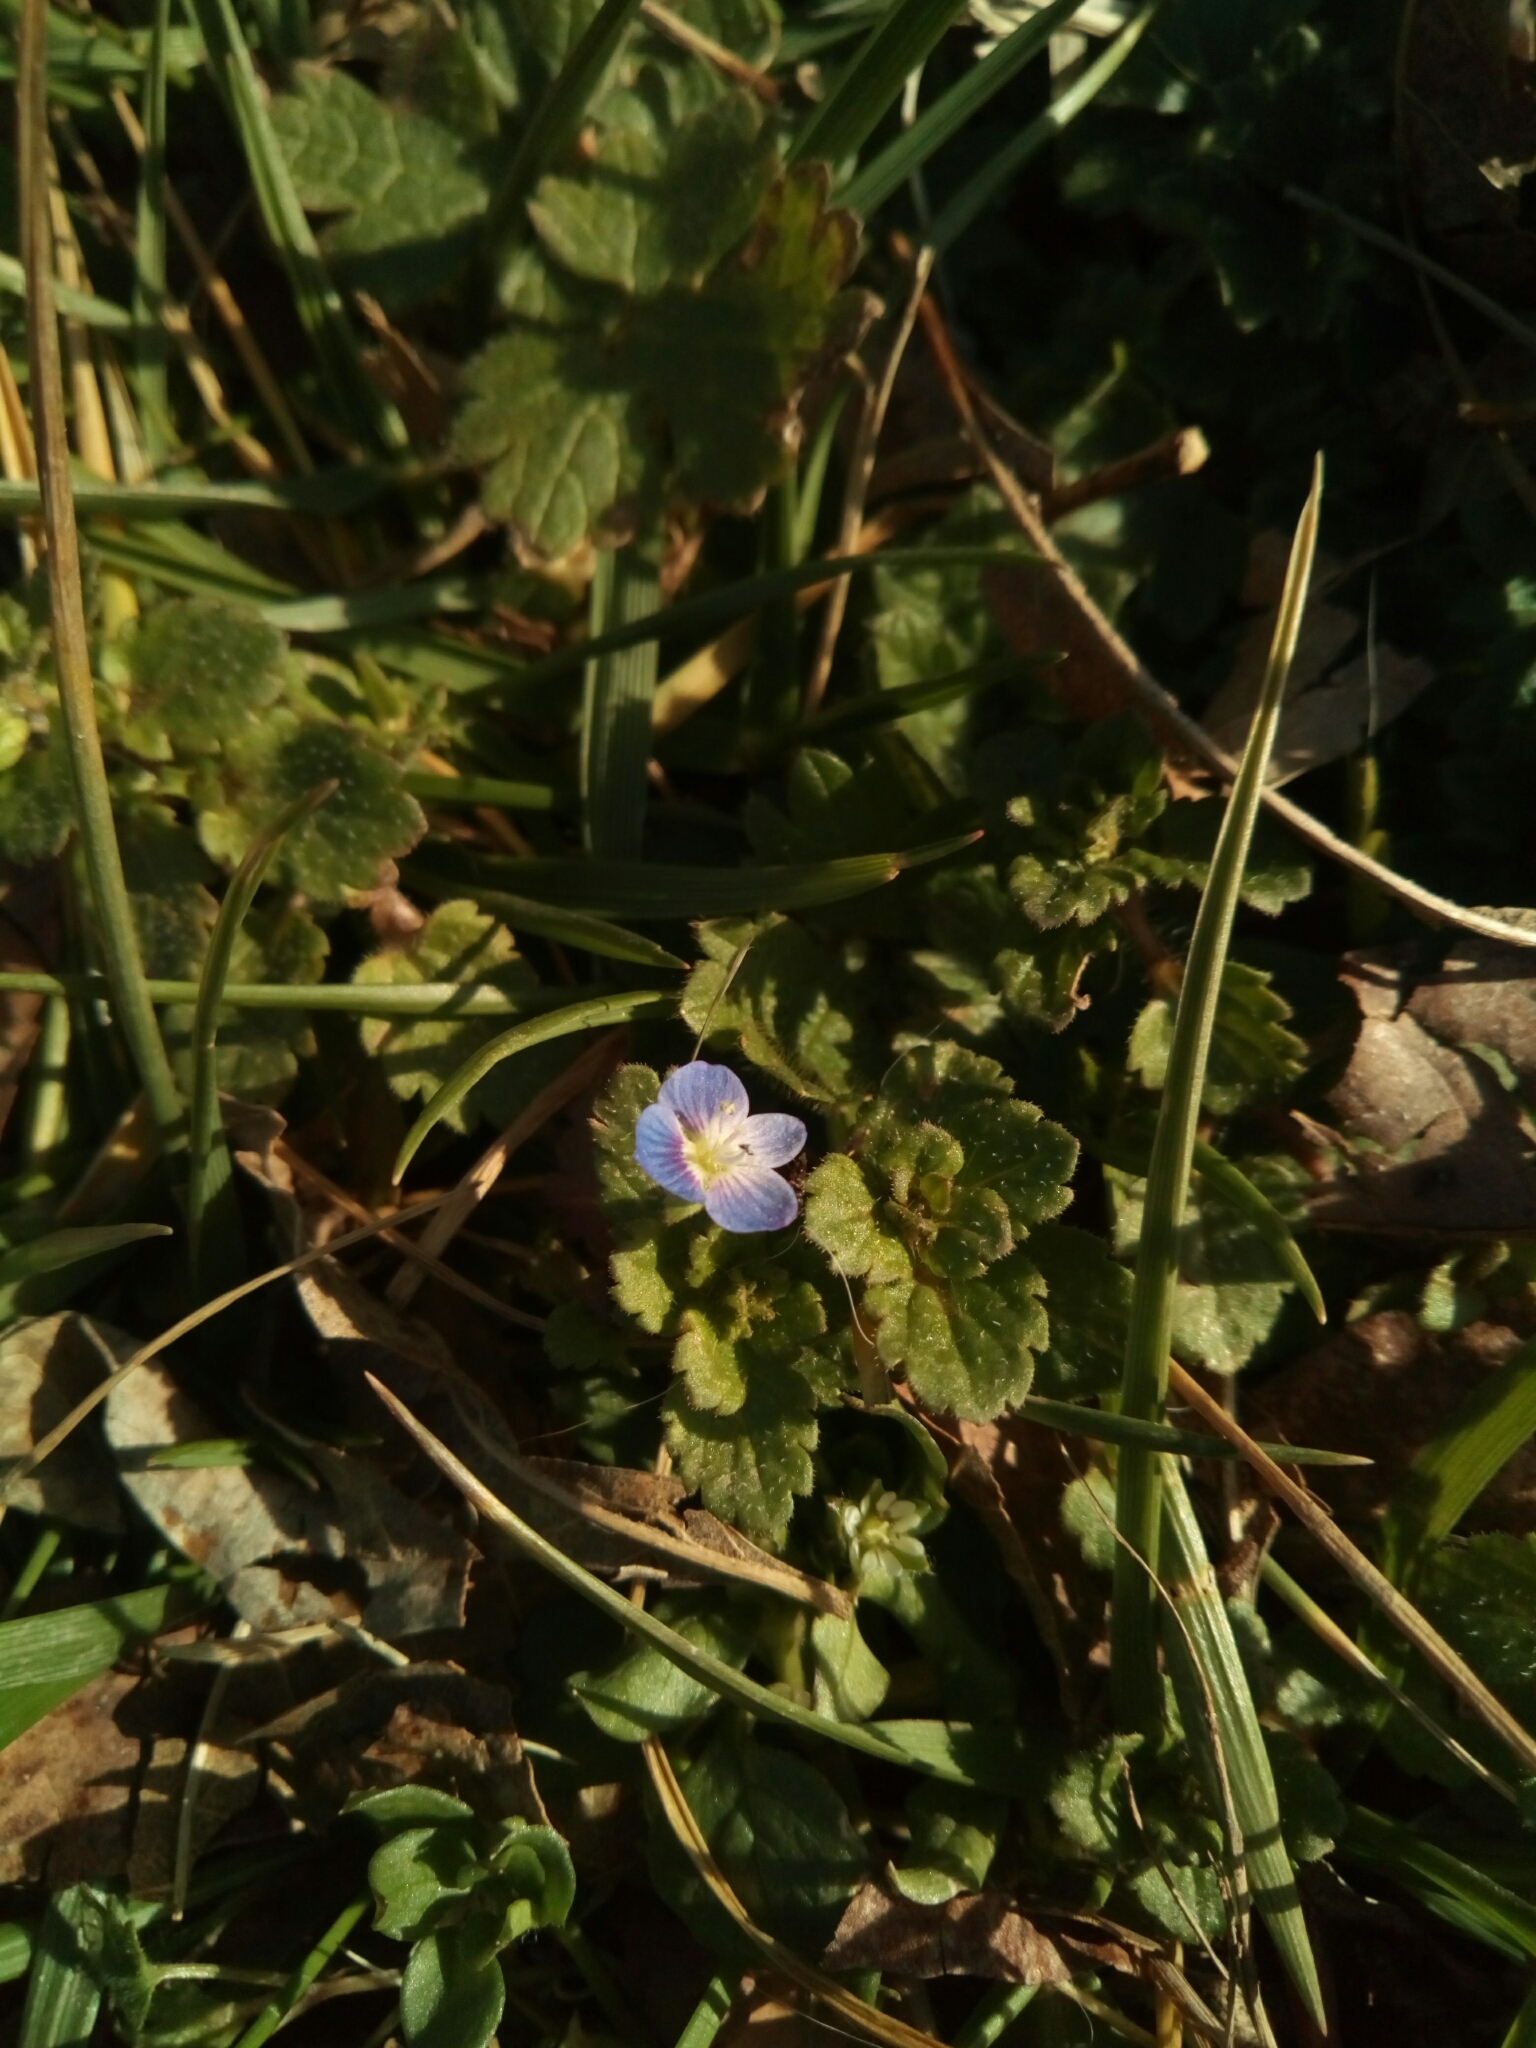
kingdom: Plantae
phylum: Tracheophyta
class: Magnoliopsida
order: Lamiales
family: Plantaginaceae
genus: Veronica
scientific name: Veronica persica
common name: Common field-speedwell
